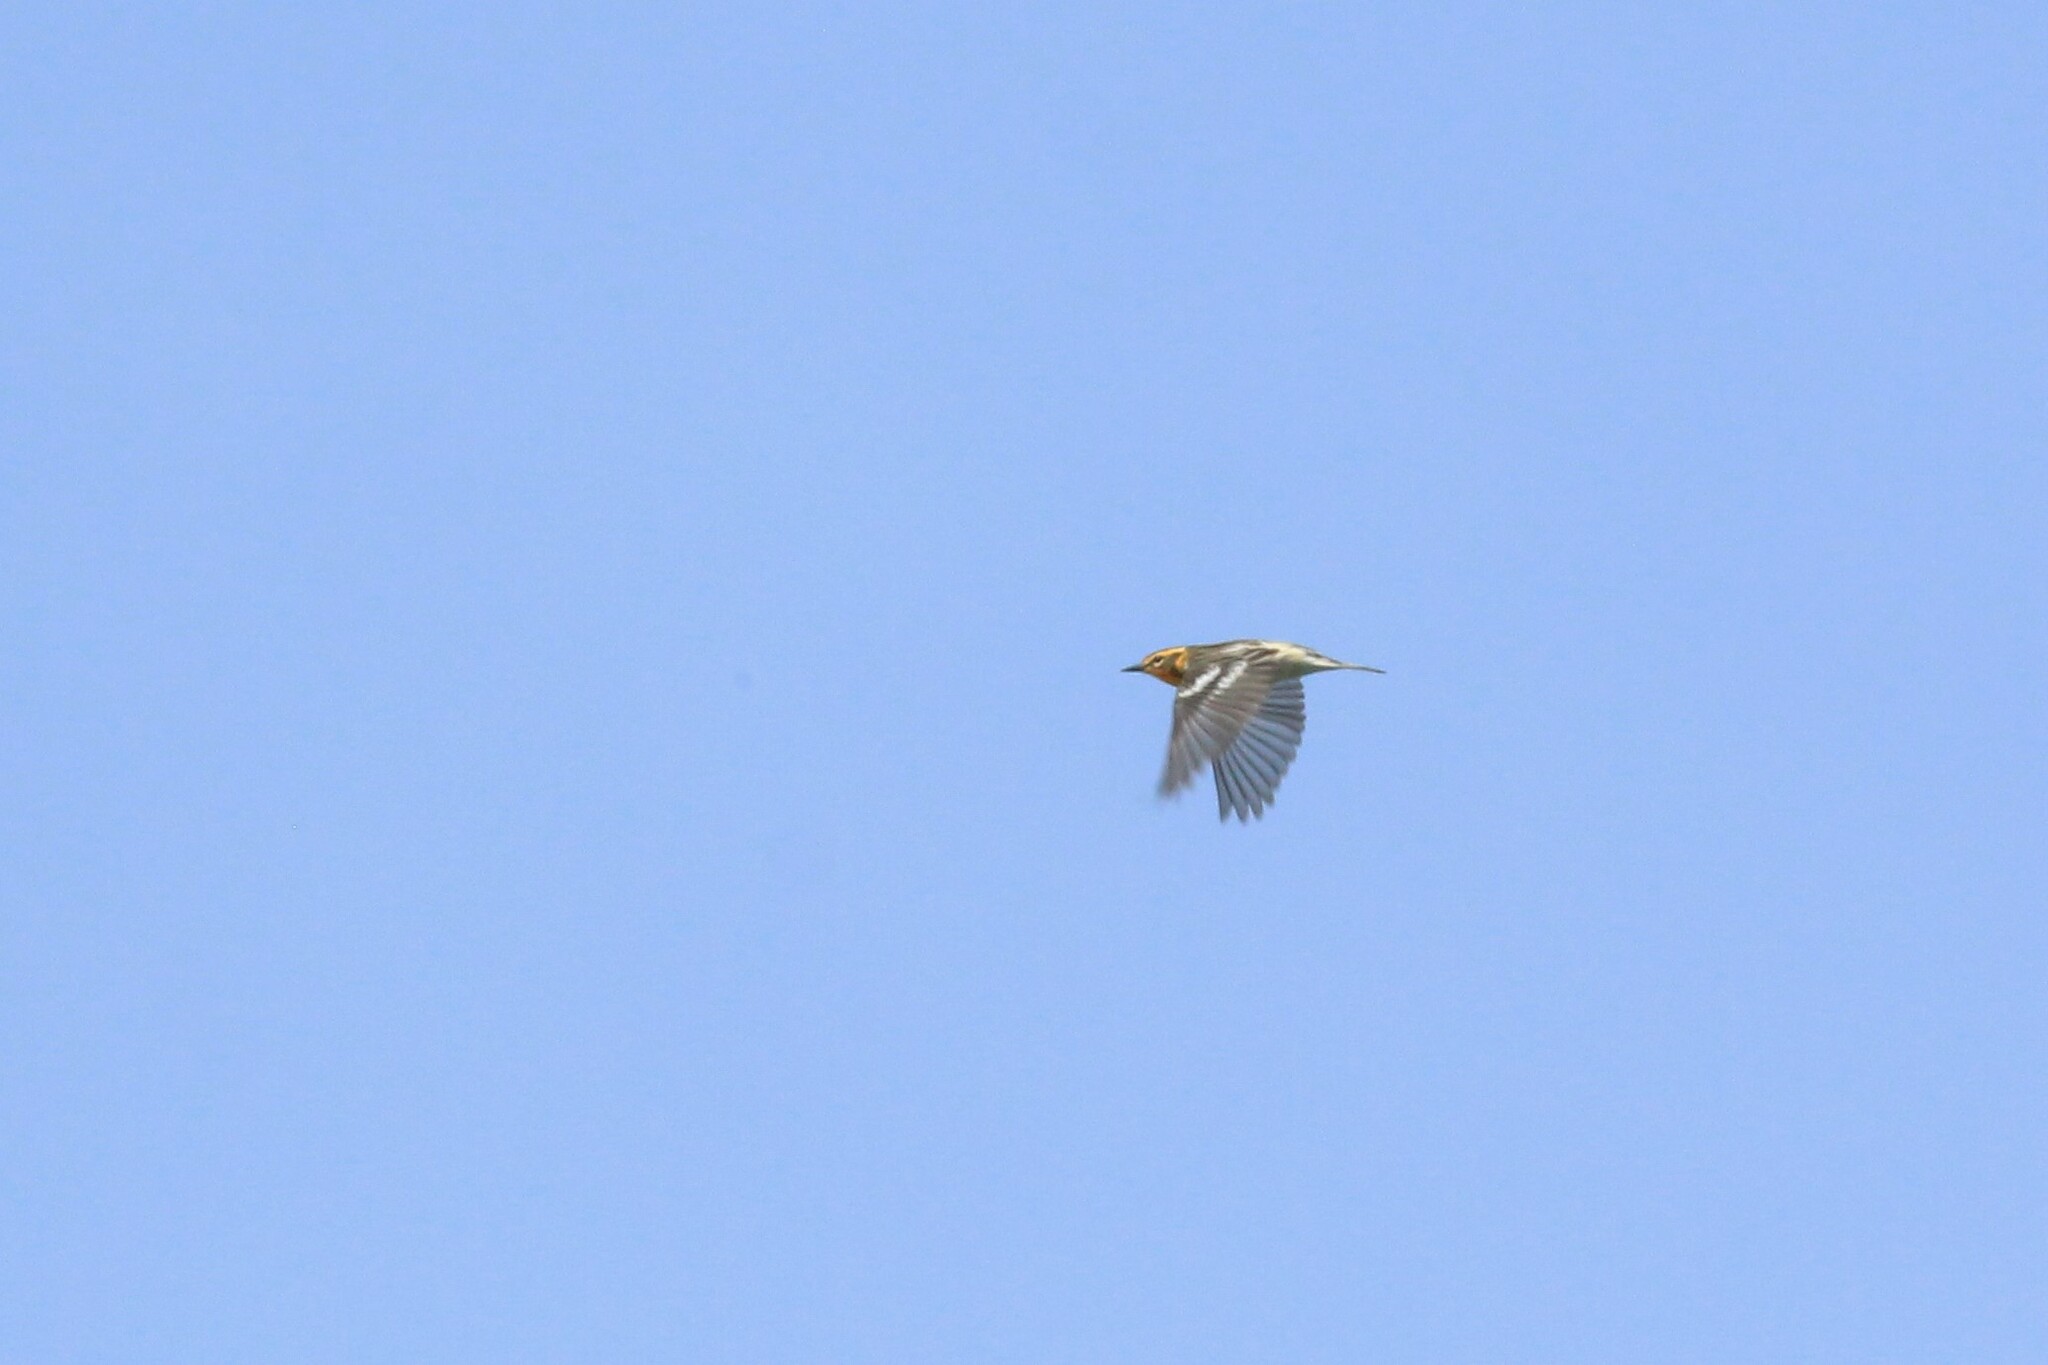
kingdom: Animalia
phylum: Chordata
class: Aves
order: Passeriformes
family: Parulidae
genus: Setophaga
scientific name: Setophaga fusca
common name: Blackburnian warbler
